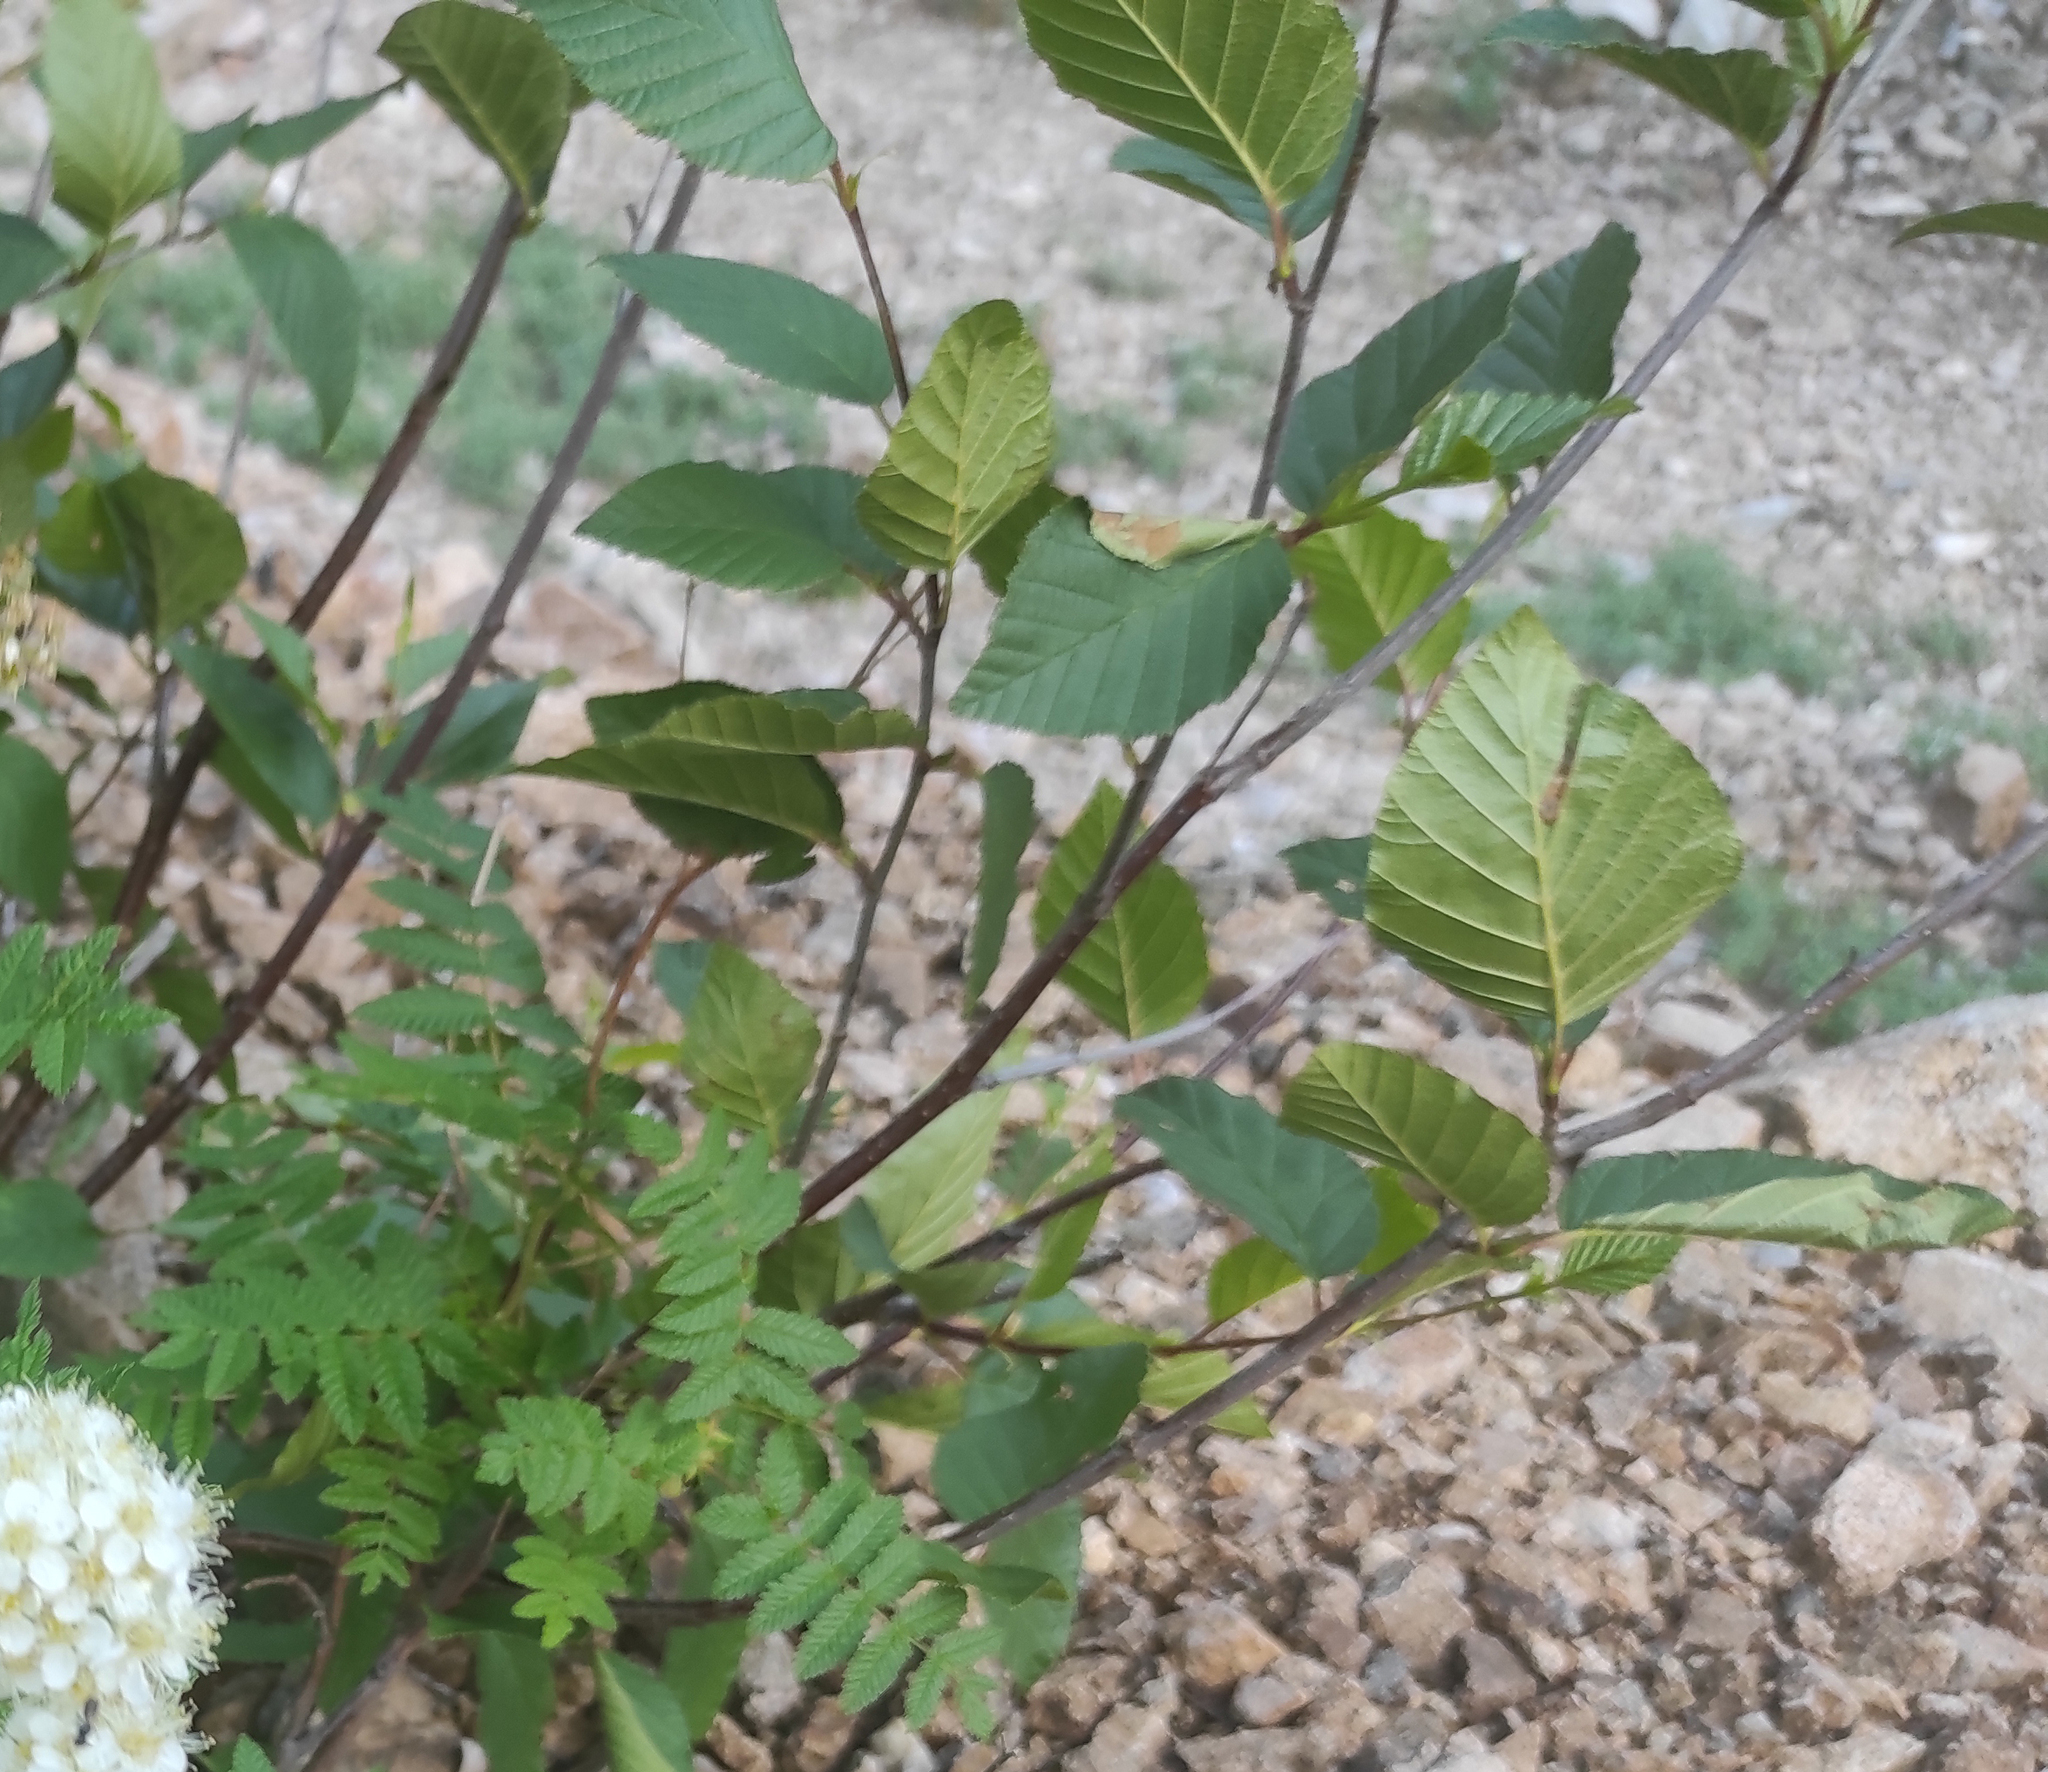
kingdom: Plantae
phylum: Tracheophyta
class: Magnoliopsida
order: Fagales
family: Betulaceae
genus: Alnus
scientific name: Alnus alnobetula
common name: Green alder
